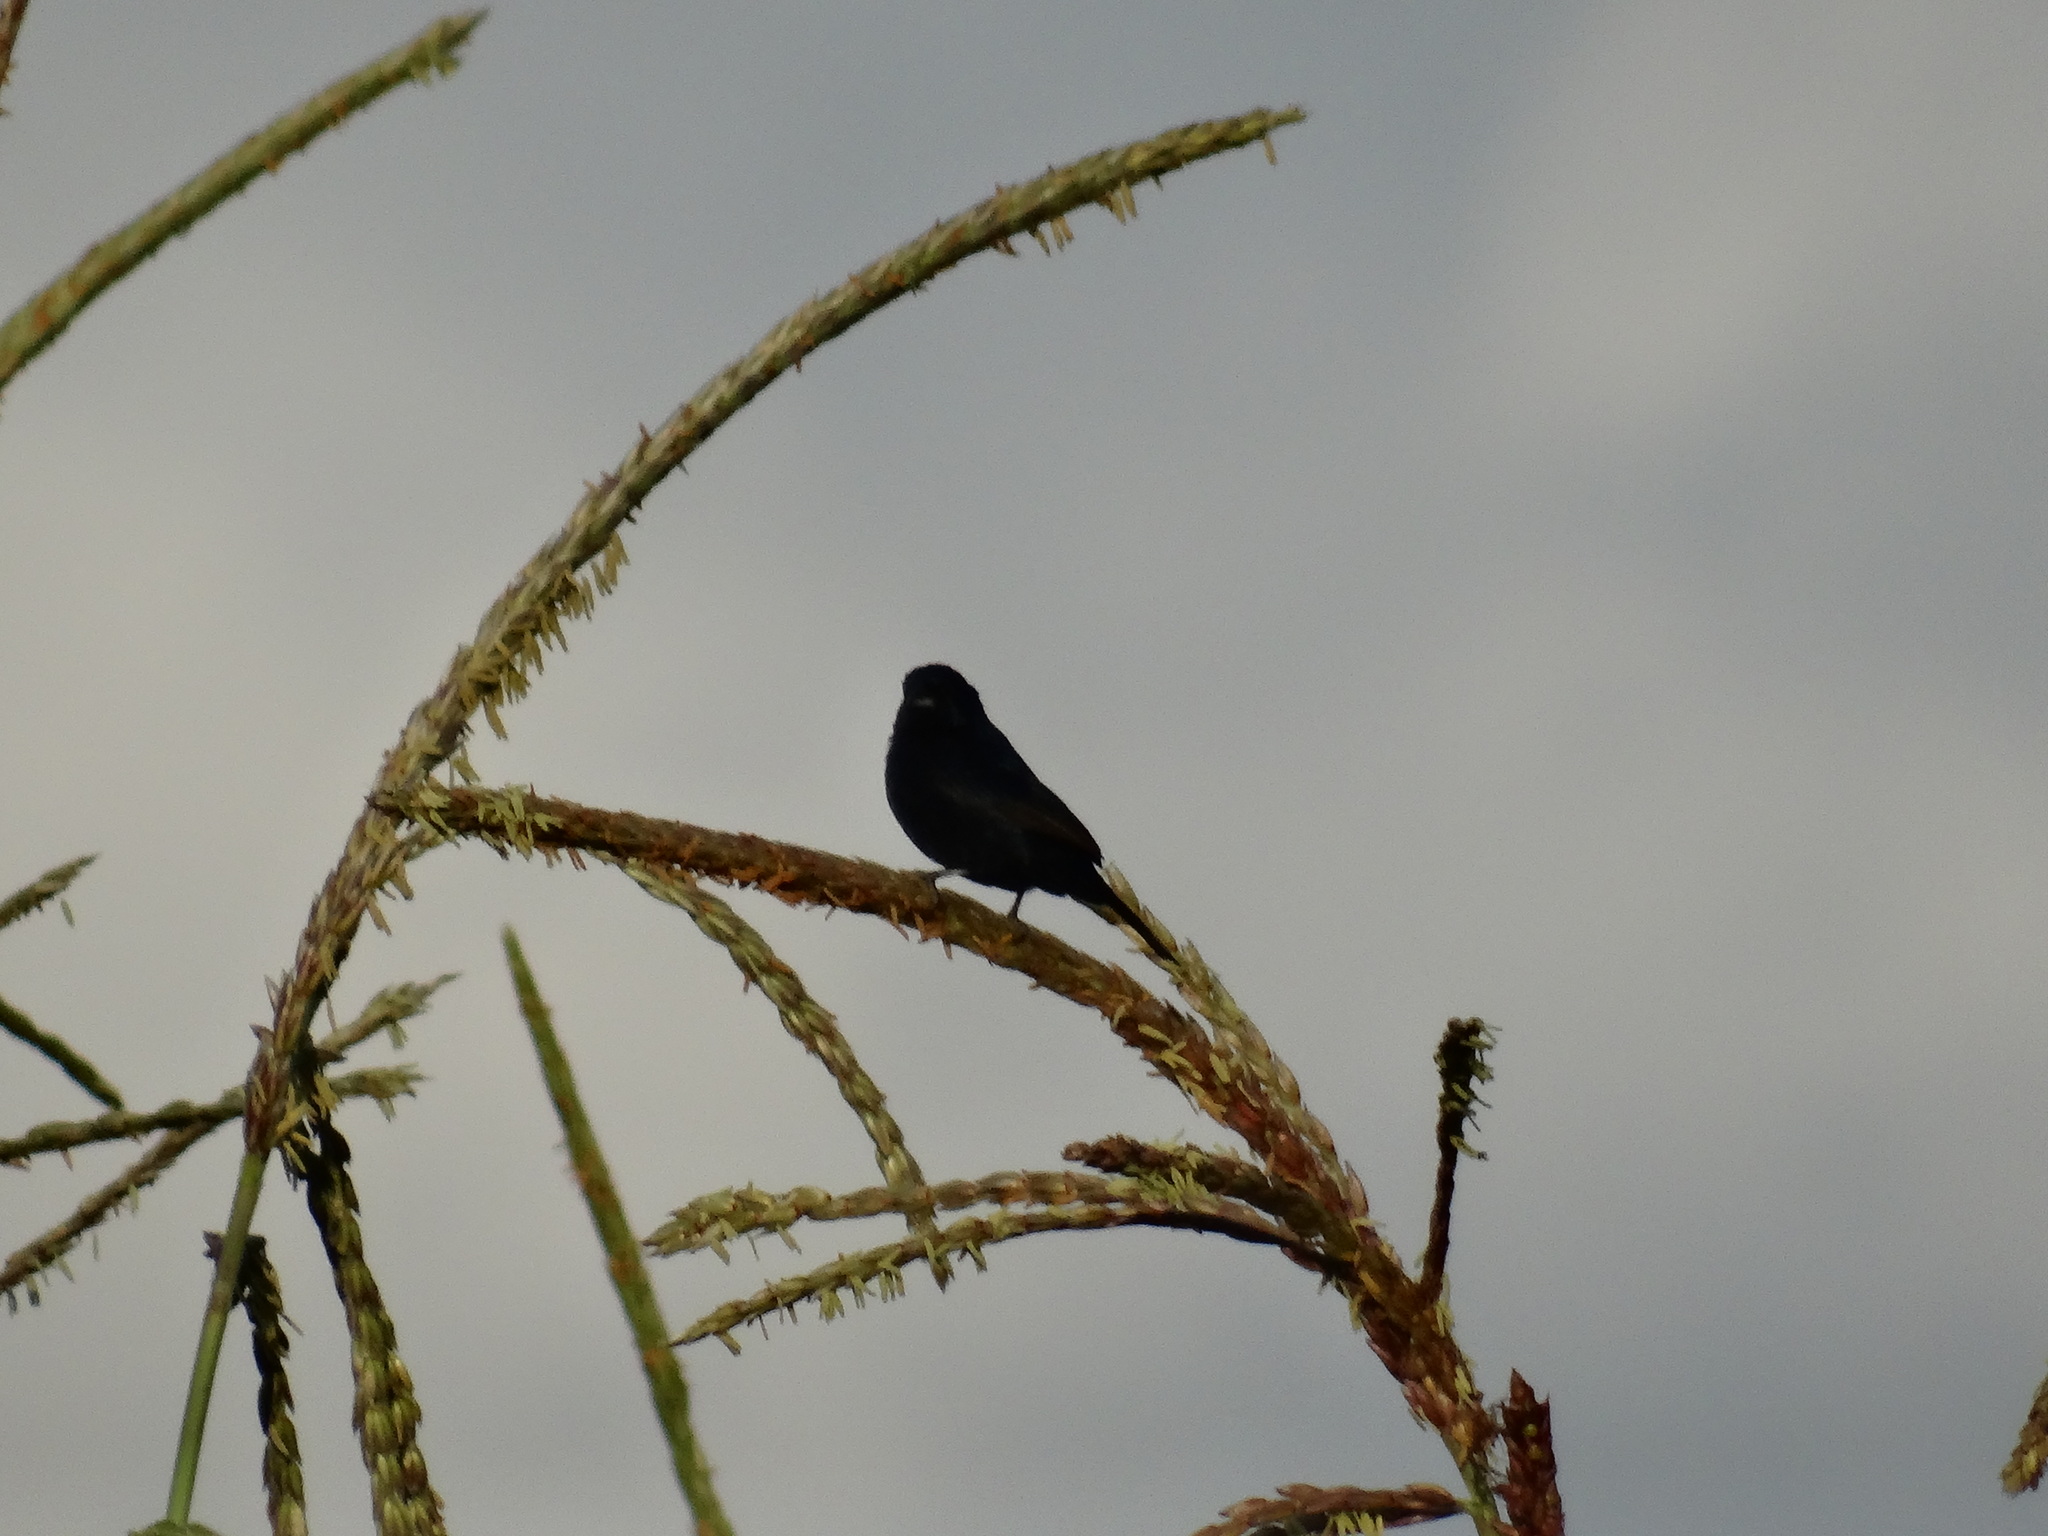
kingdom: Animalia
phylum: Chordata
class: Aves
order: Passeriformes
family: Thraupidae
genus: Volatinia
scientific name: Volatinia jacarina
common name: Blue-black grassquit
